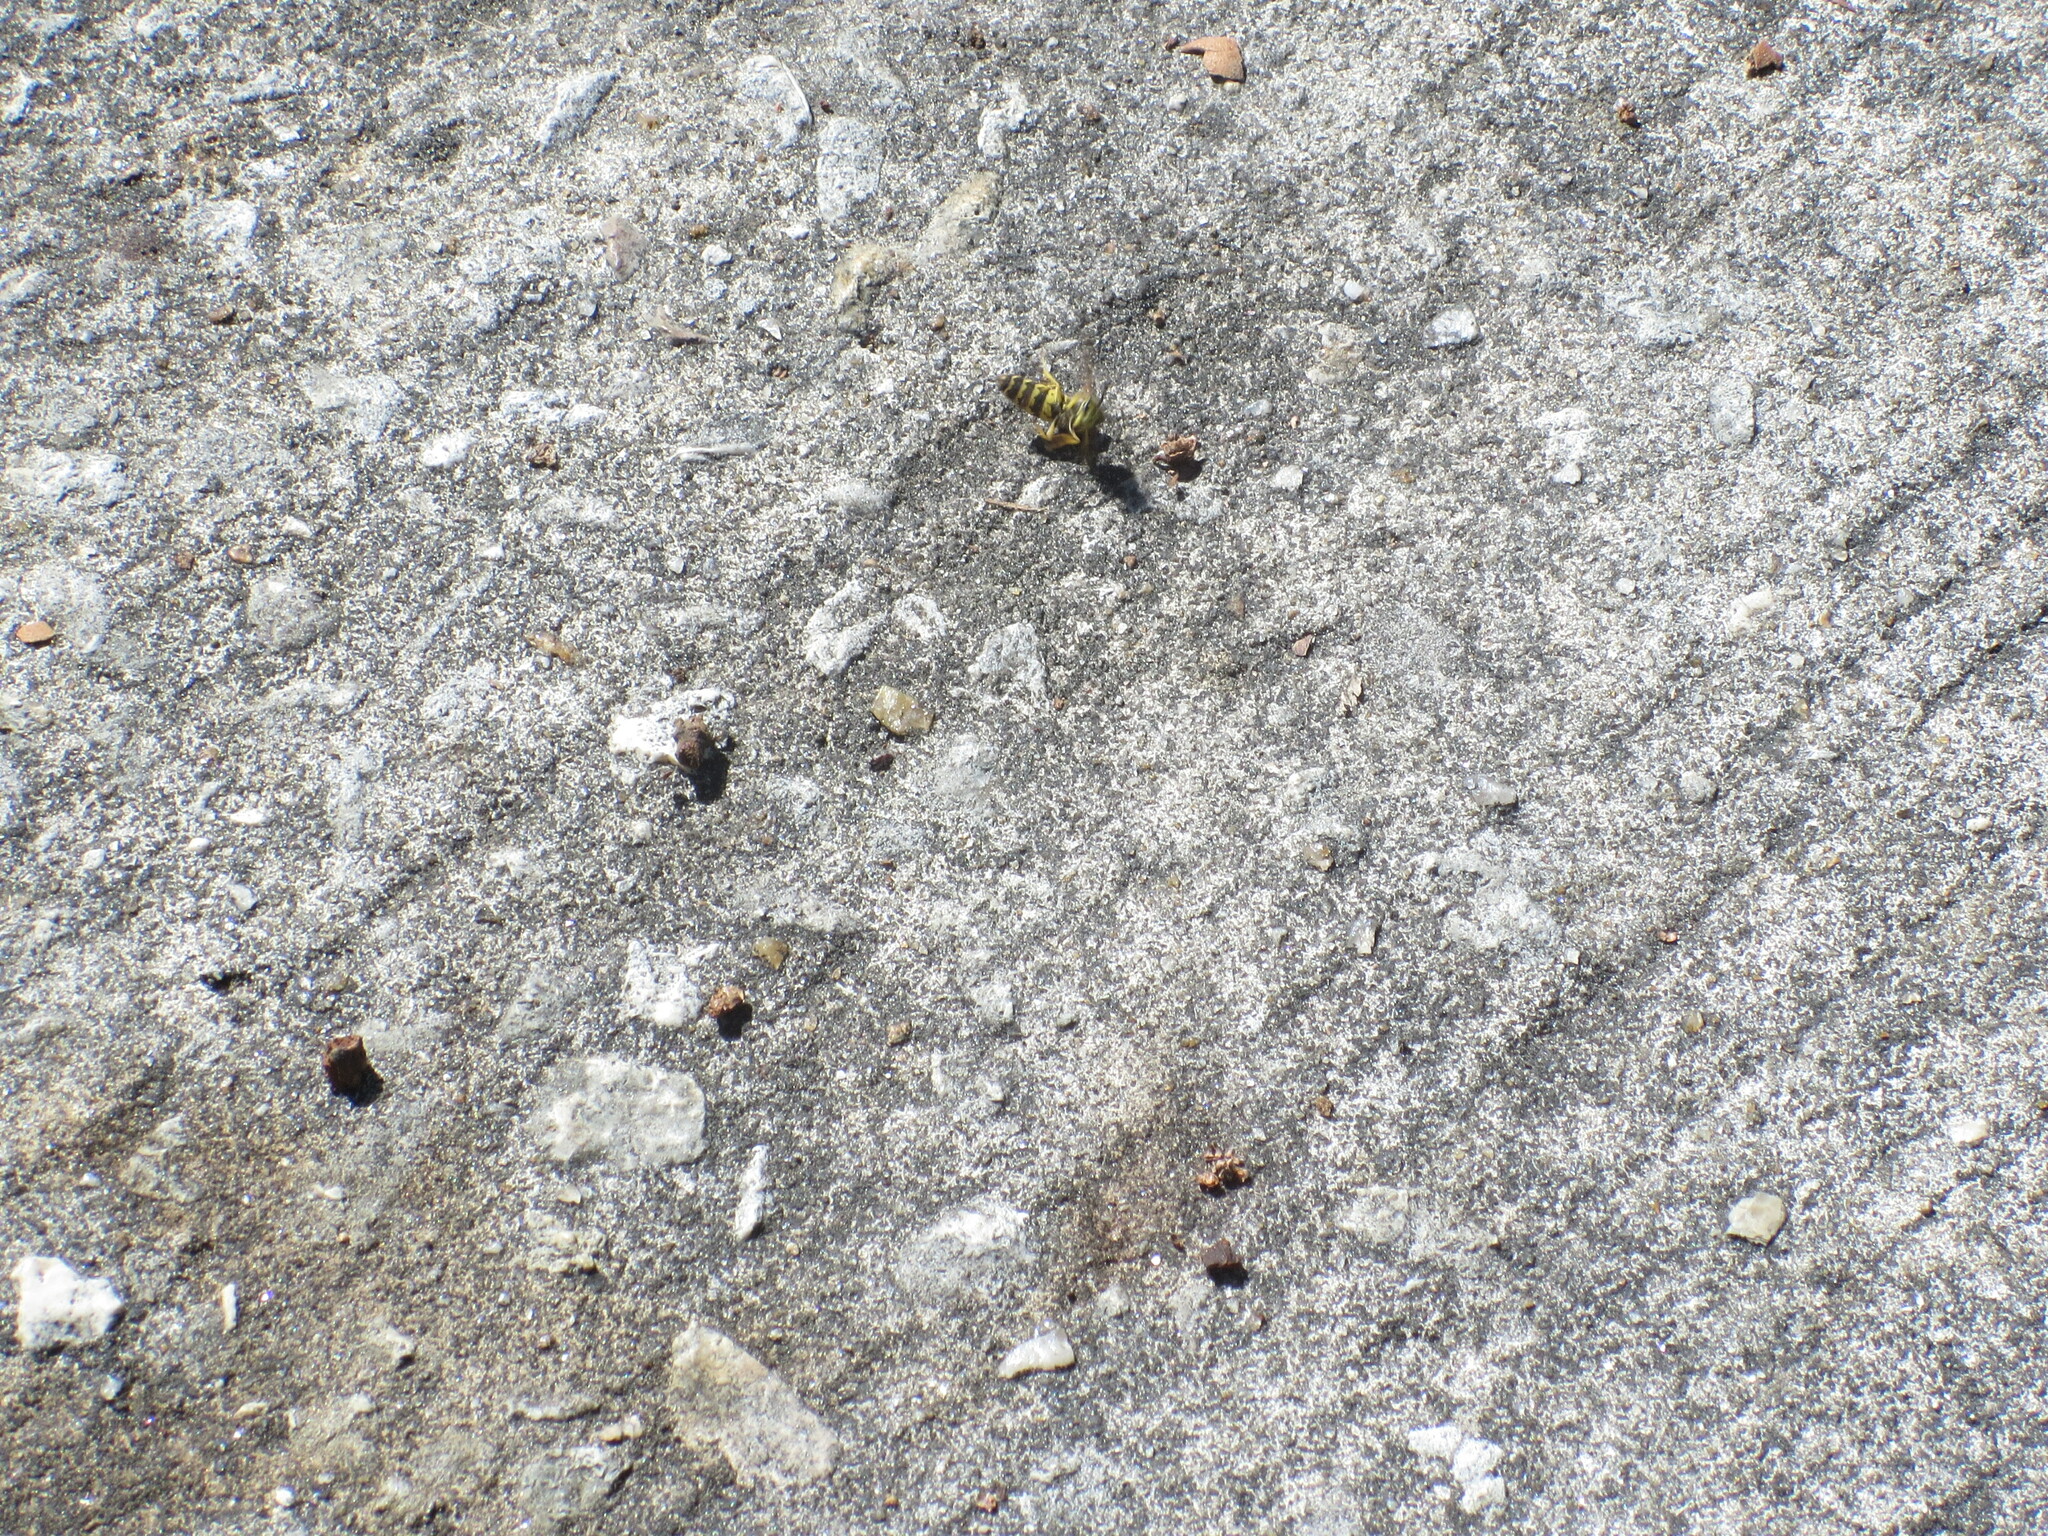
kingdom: Animalia
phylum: Arthropoda
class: Insecta
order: Hymenoptera
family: Vespidae
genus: Vespula
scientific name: Vespula maculifrons
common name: Eastern yellowjacket
